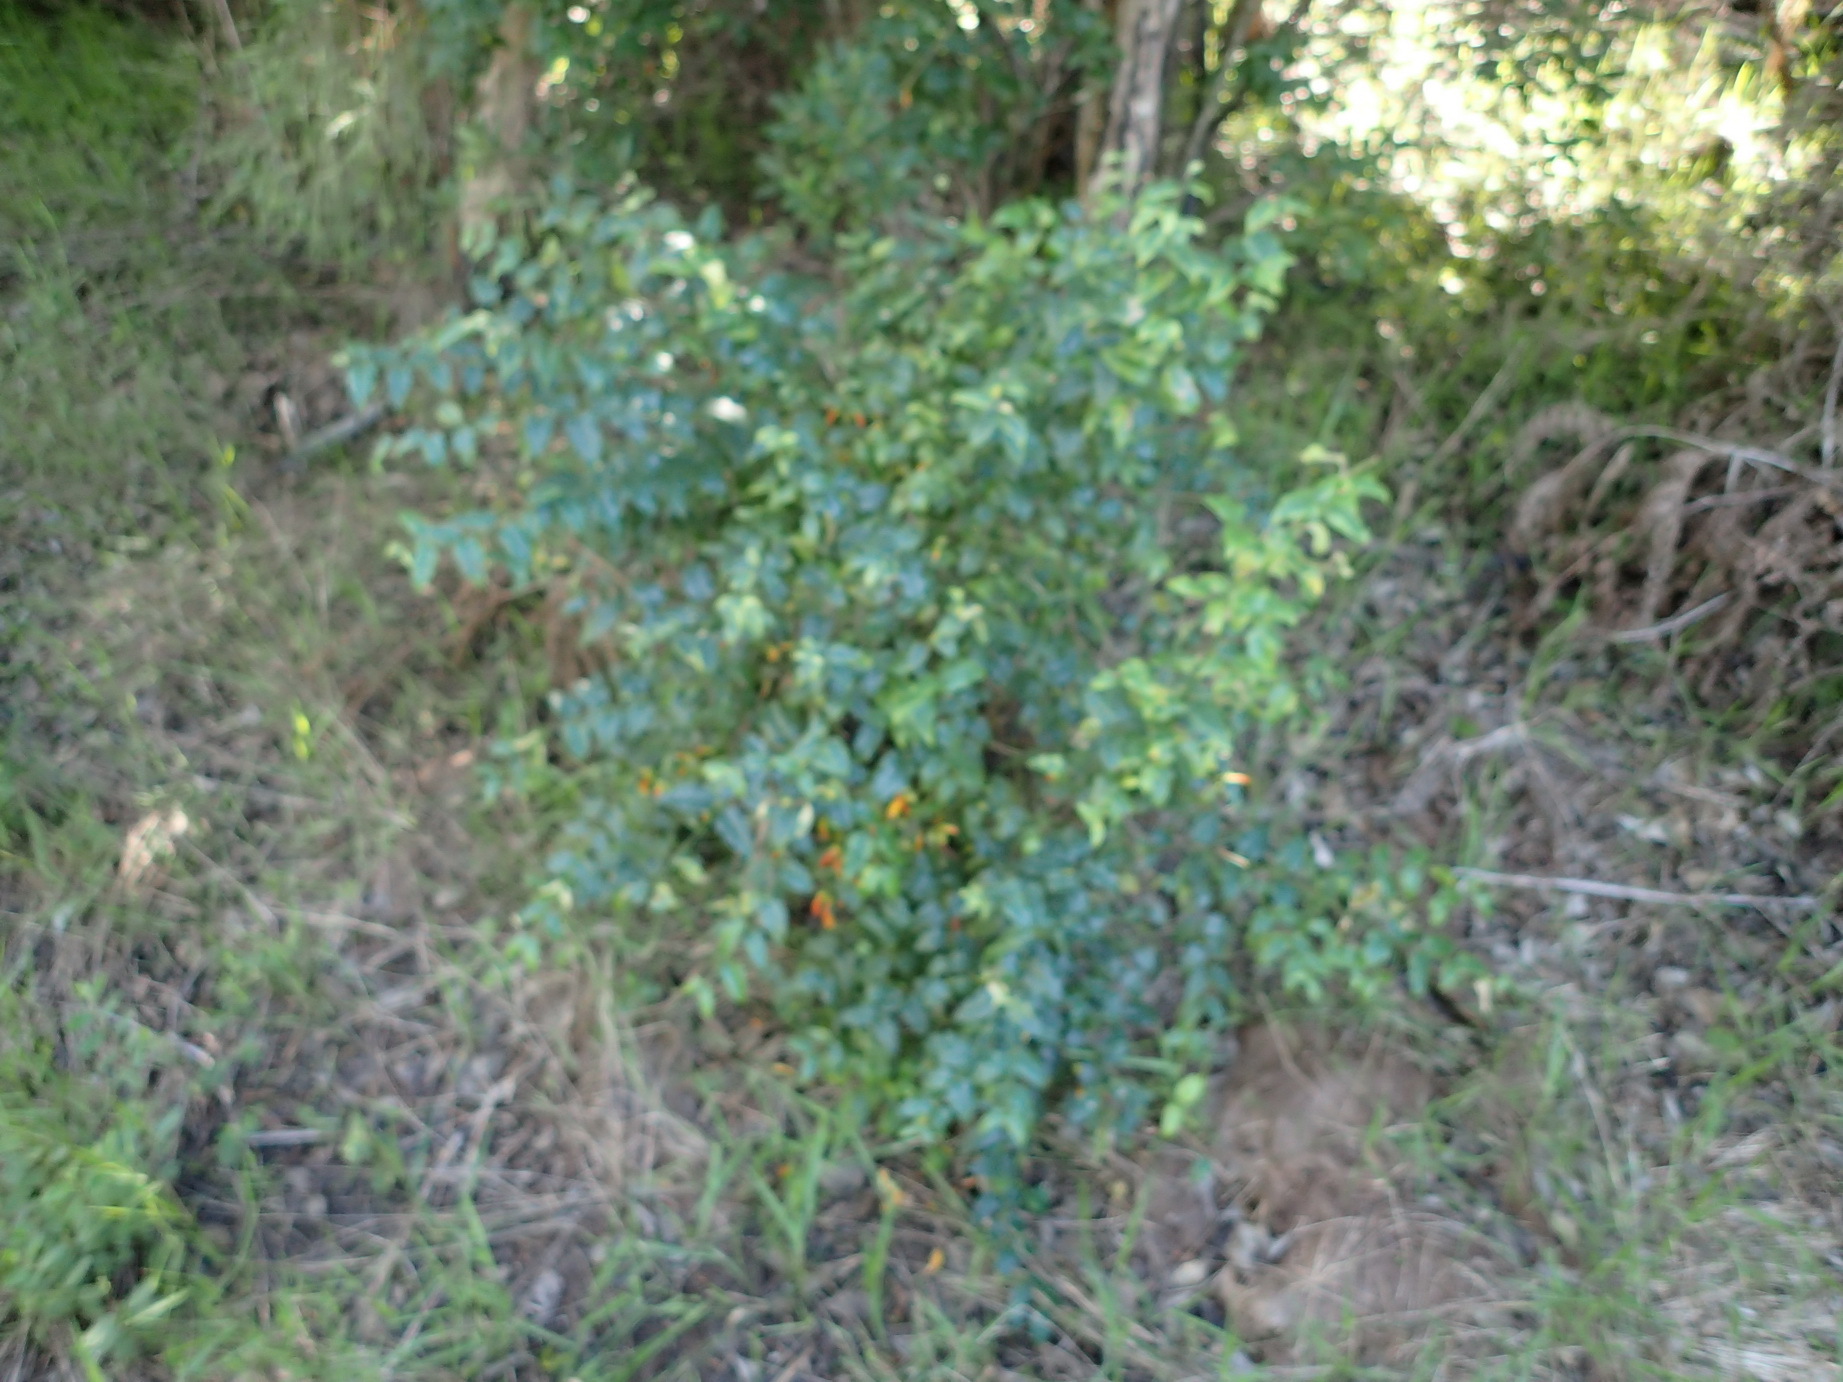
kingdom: Plantae
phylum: Tracheophyta
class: Magnoliopsida
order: Lamiales
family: Stilbaceae
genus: Halleria
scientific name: Halleria lucida
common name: Tree fuschia
